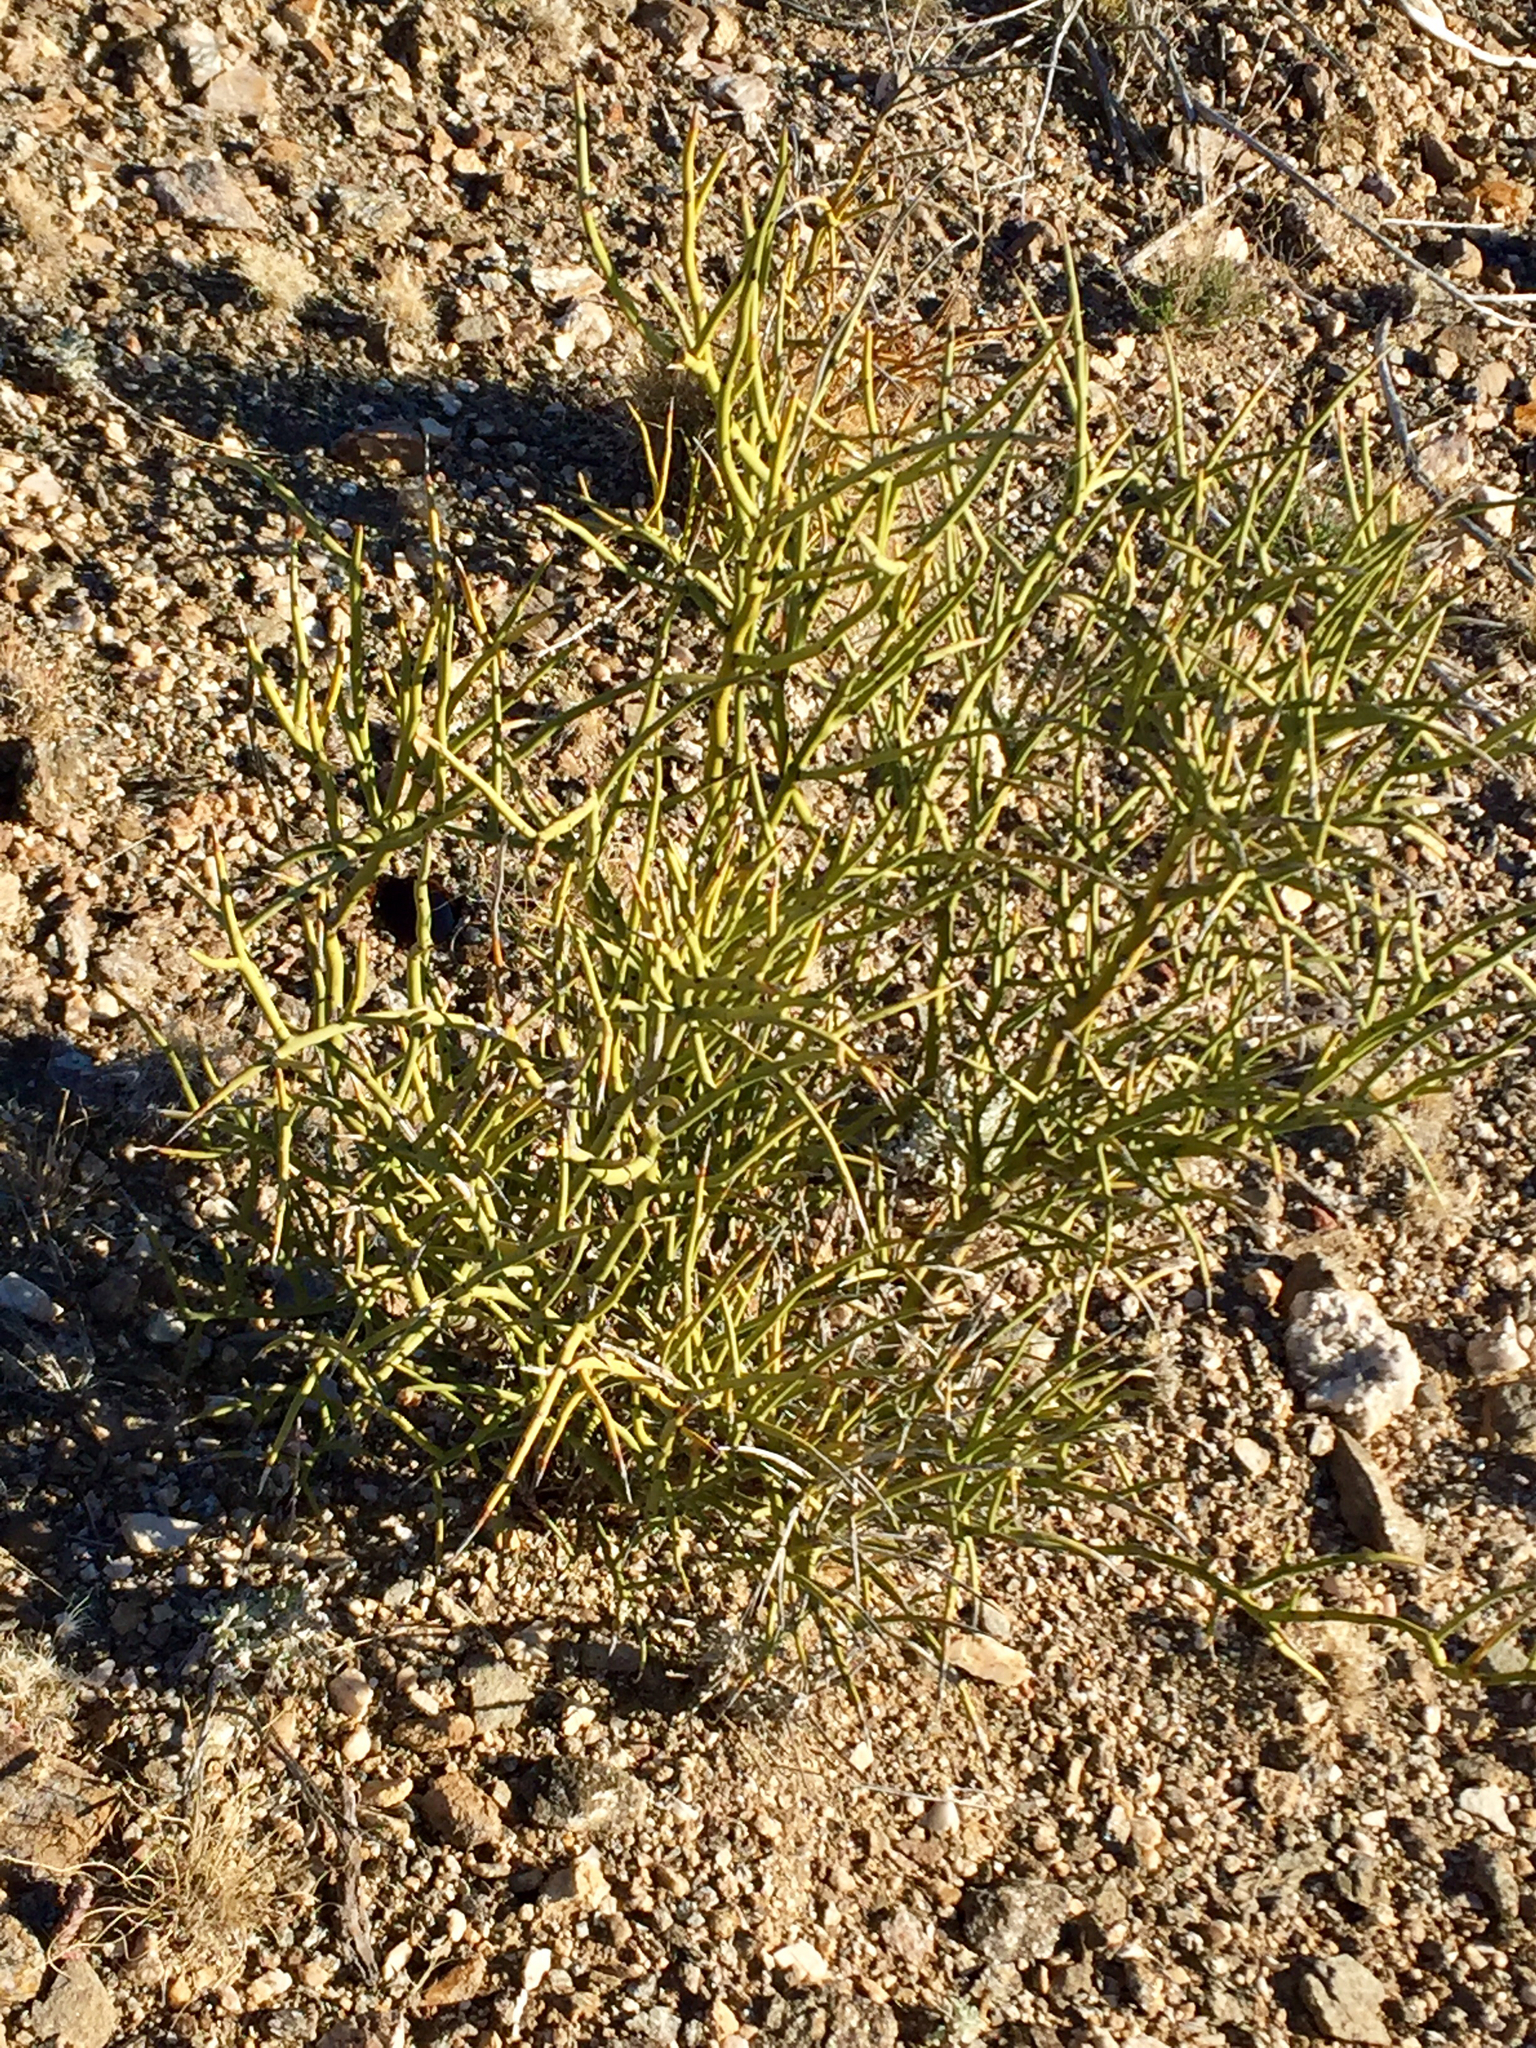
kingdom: Plantae
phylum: Tracheophyta
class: Magnoliopsida
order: Celastrales
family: Celastraceae
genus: Canotia
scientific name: Canotia holacantha
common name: Crucifixion thorns
